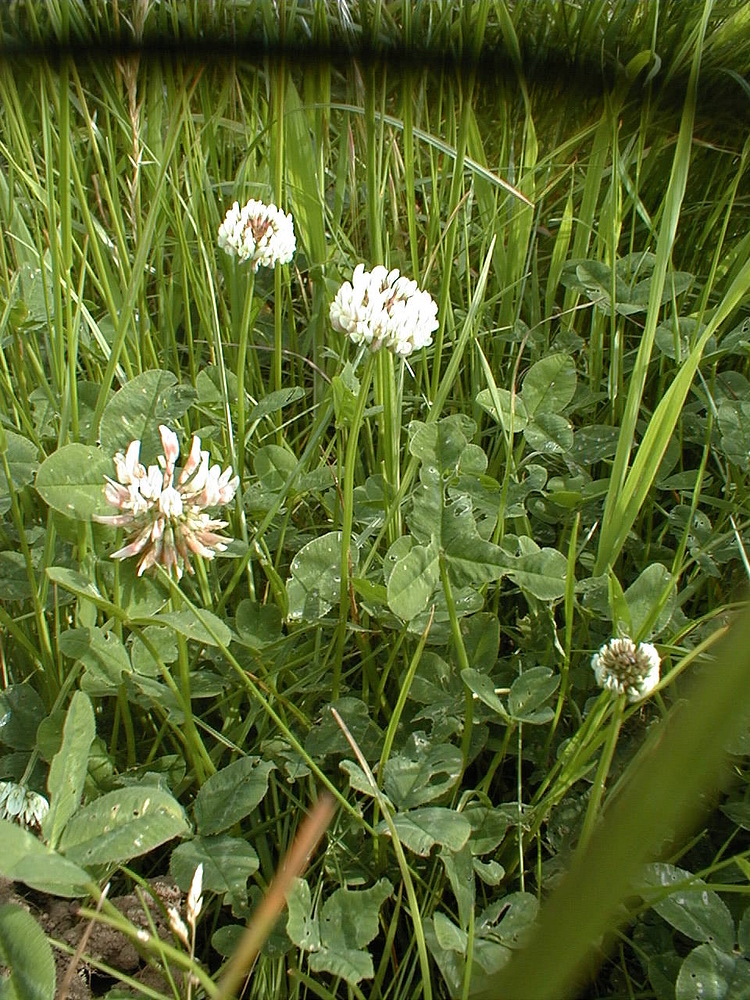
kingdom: Plantae
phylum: Tracheophyta
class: Magnoliopsida
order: Fabales
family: Fabaceae
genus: Trifolium
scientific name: Trifolium repens
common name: White clover
